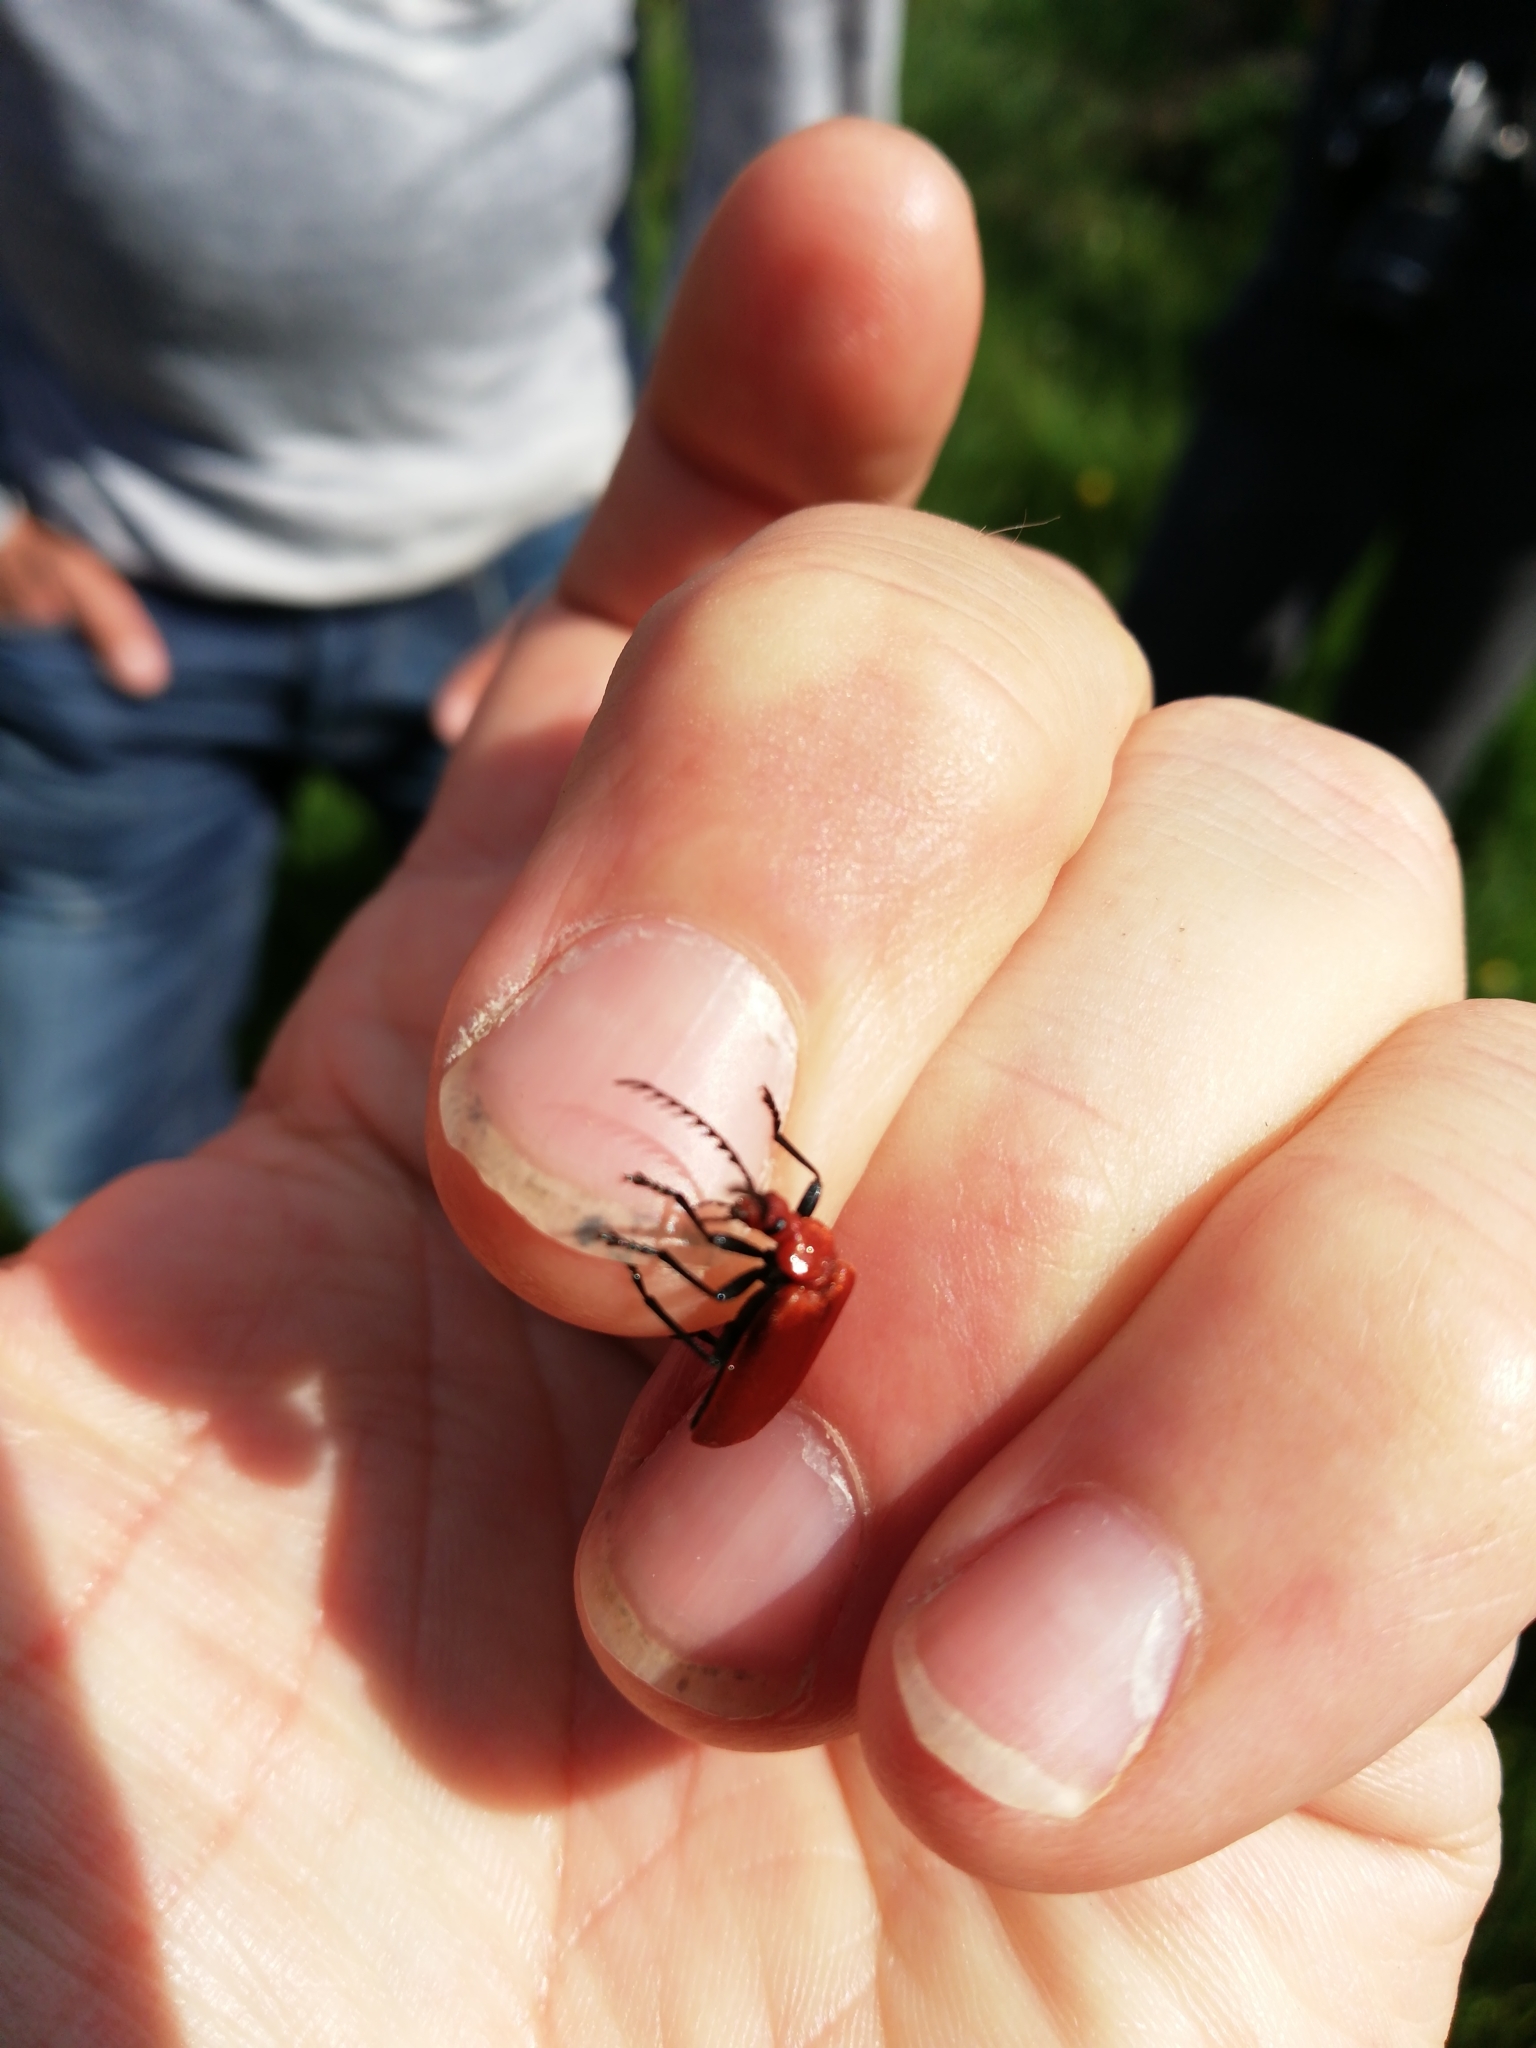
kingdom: Animalia
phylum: Arthropoda
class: Insecta
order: Coleoptera
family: Pyrochroidae
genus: Pyrochroa
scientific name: Pyrochroa serraticornis
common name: Red-headed cardinal beetle
